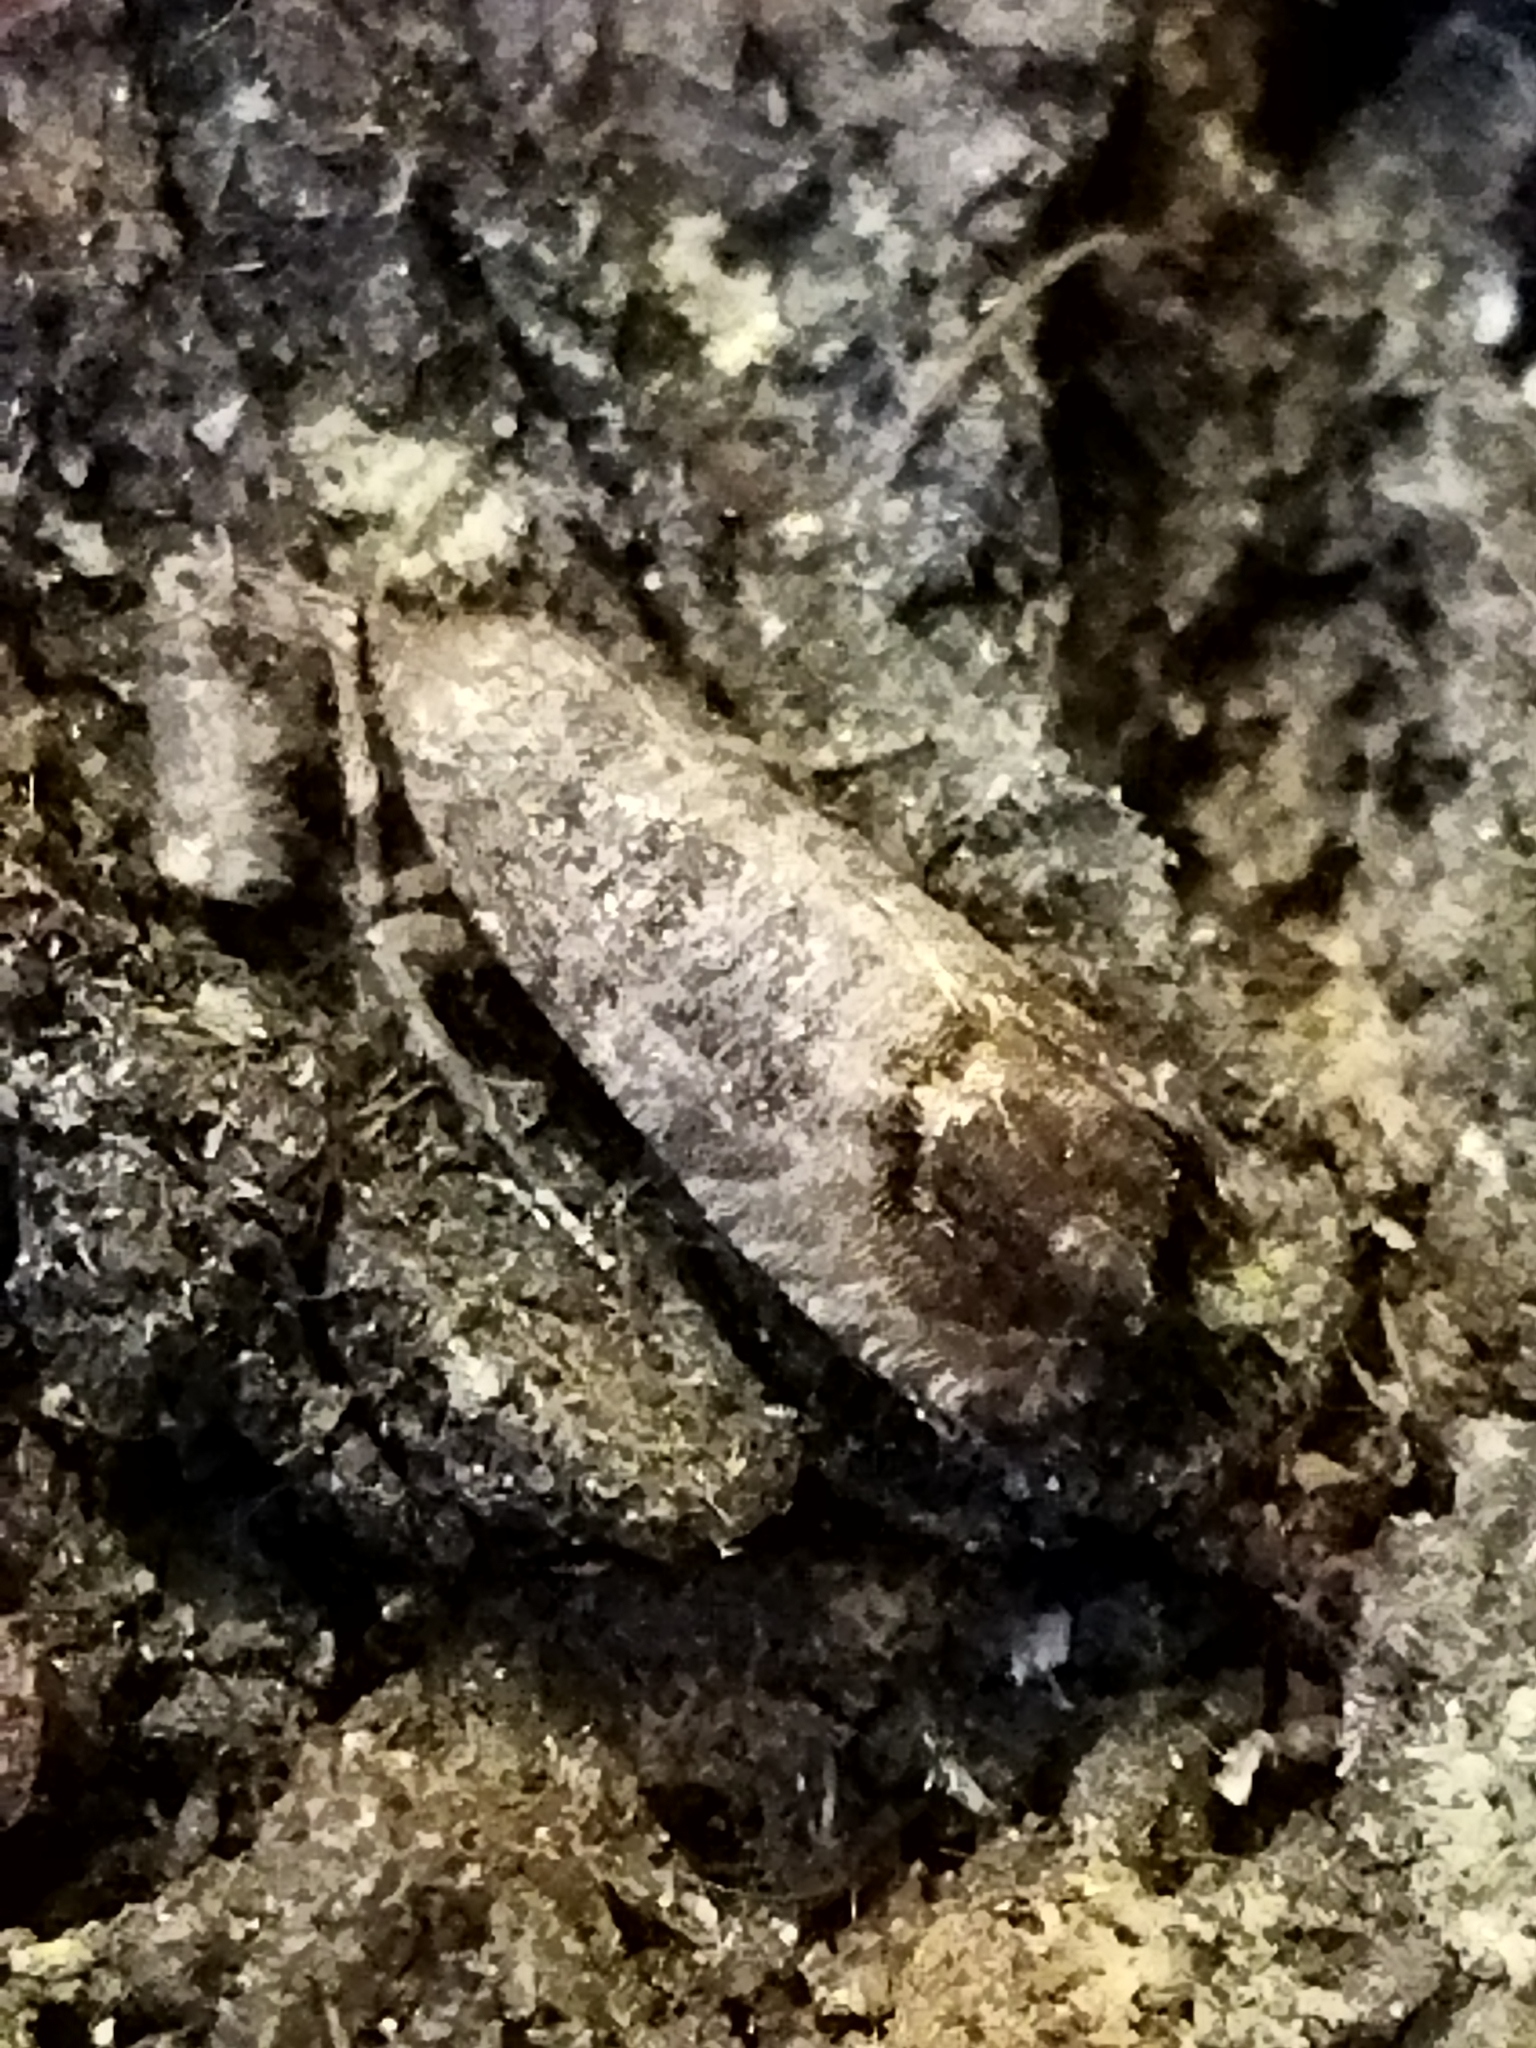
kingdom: Animalia
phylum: Arthropoda
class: Insecta
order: Lepidoptera
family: Tortricidae
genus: Cydia
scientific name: Cydia pomonella
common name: Codling moth
